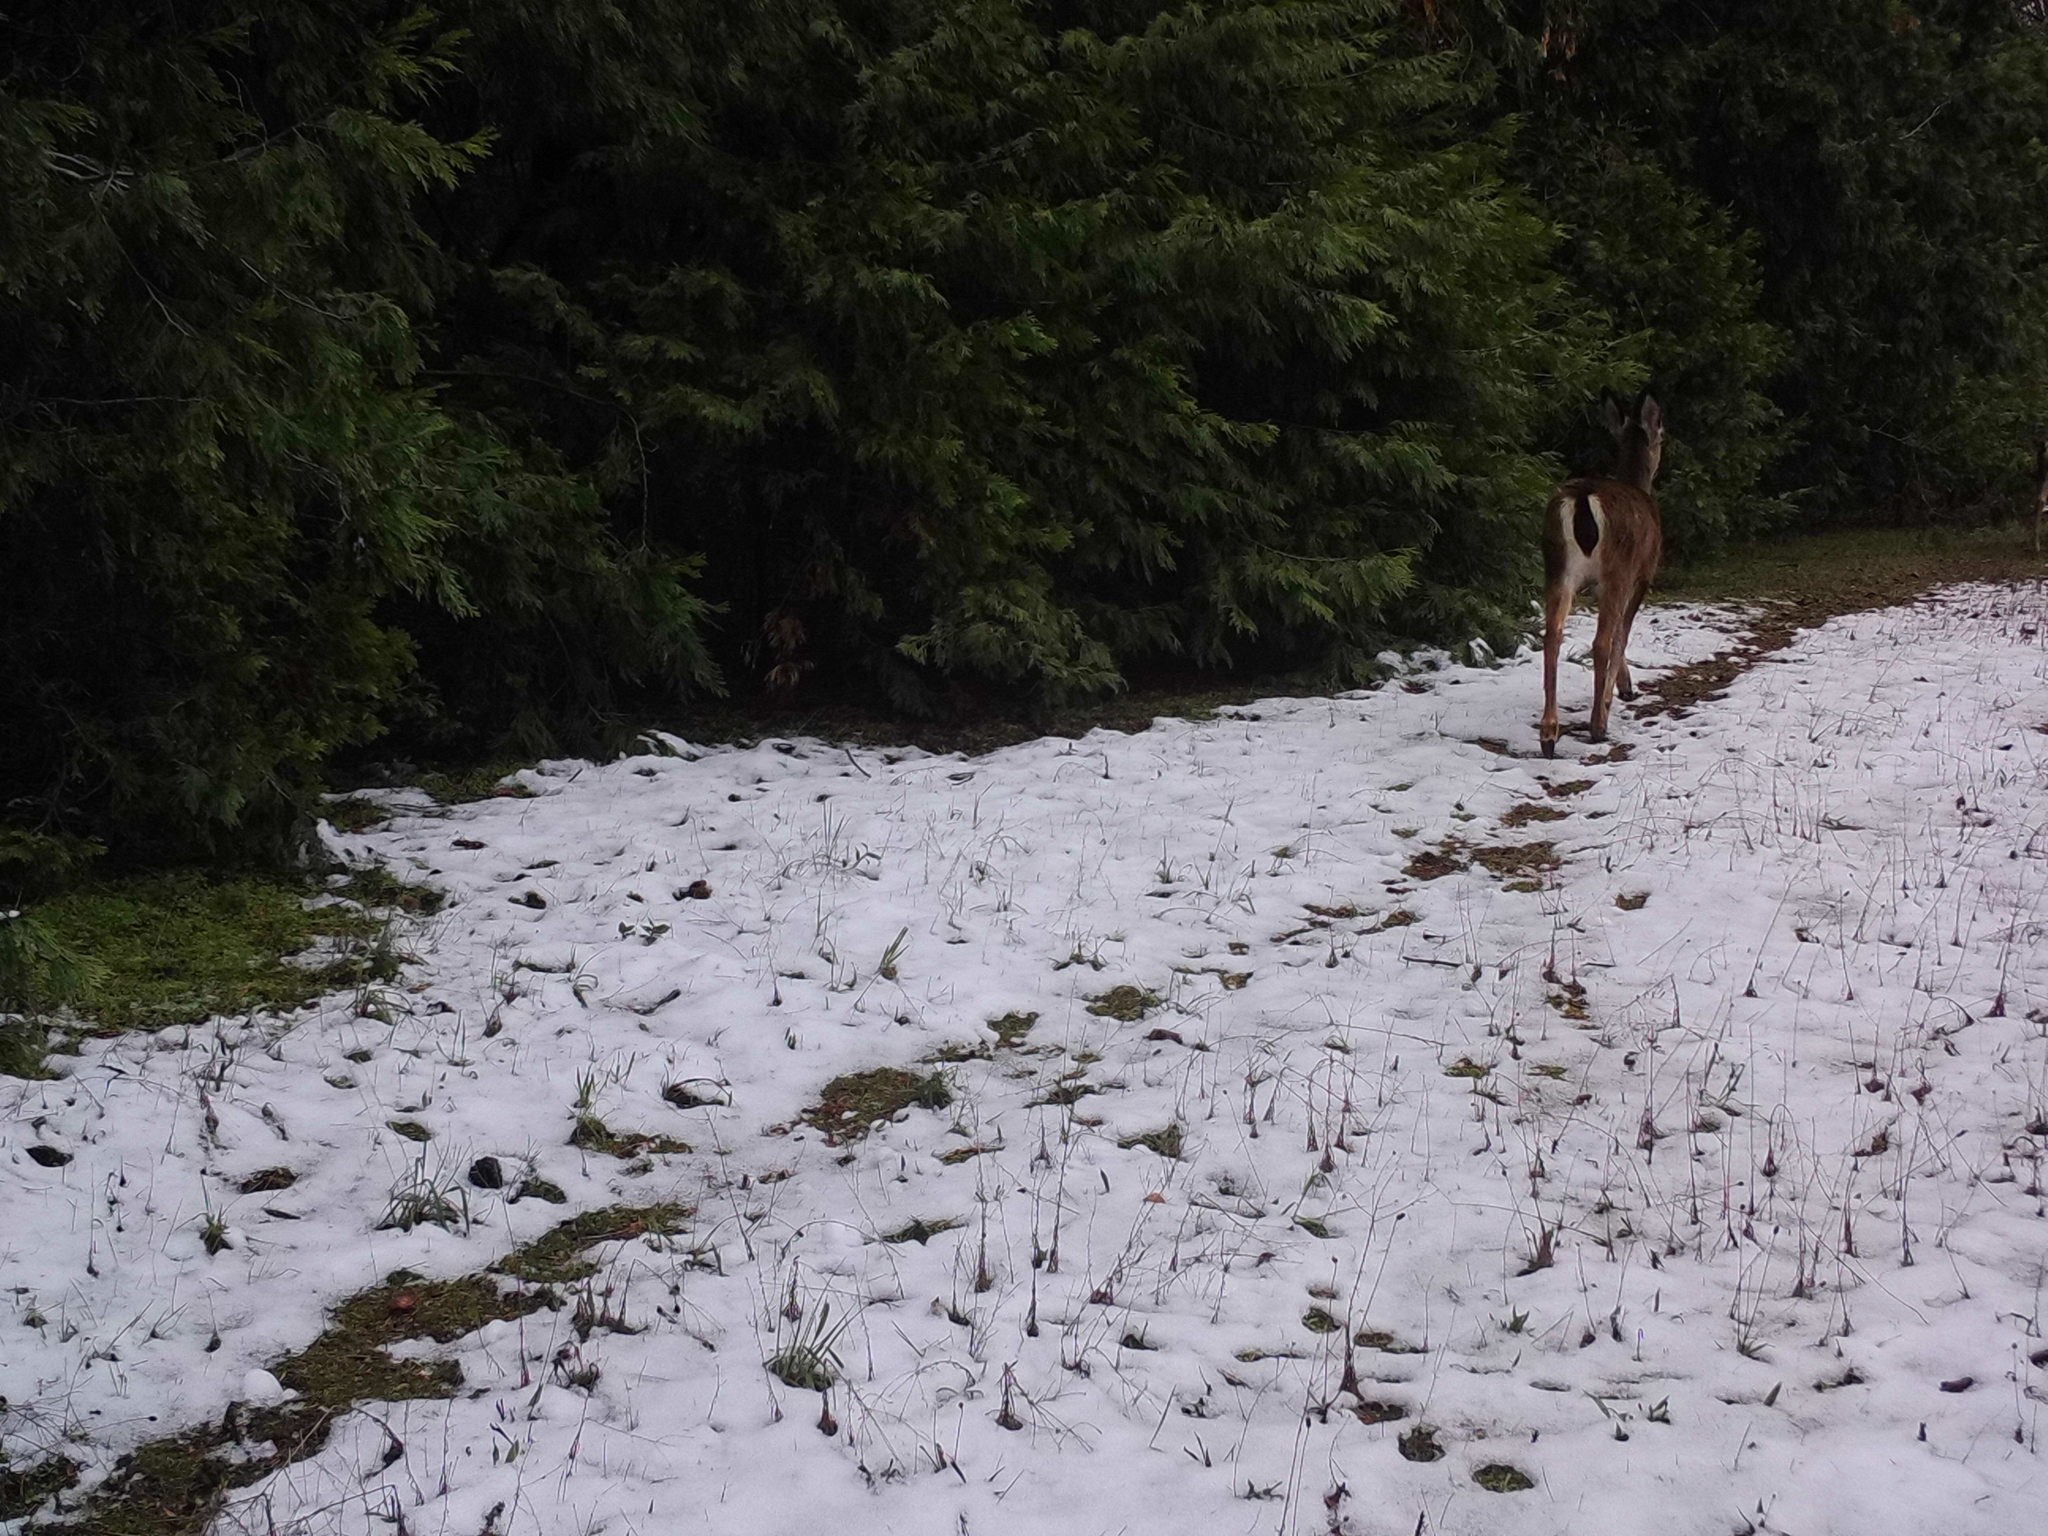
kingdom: Animalia
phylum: Chordata
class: Mammalia
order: Artiodactyla
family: Cervidae
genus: Odocoileus
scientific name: Odocoileus hemionus
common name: Mule deer
